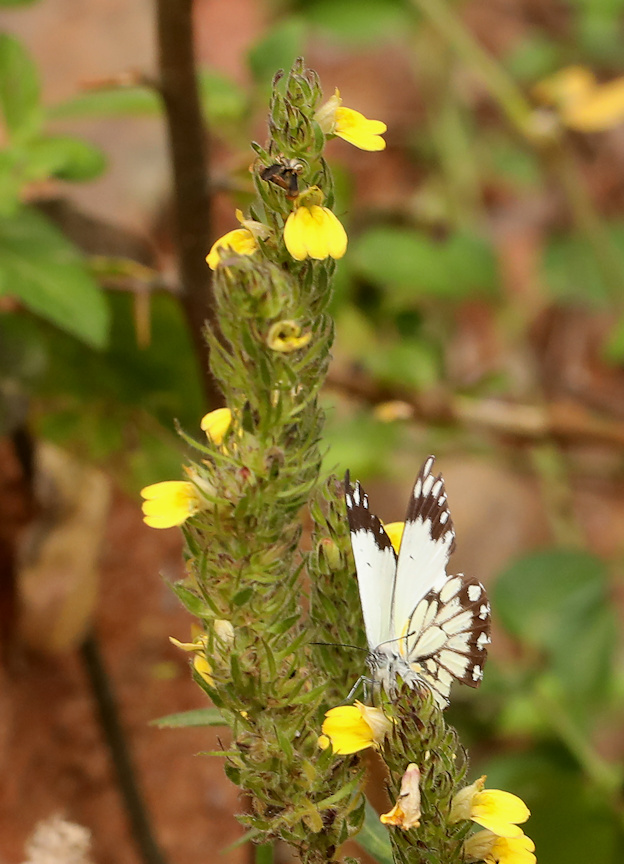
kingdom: Plantae
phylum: Tracheophyta
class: Magnoliopsida
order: Lamiales
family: Acanthaceae
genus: Justicia
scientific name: Justicia flava
